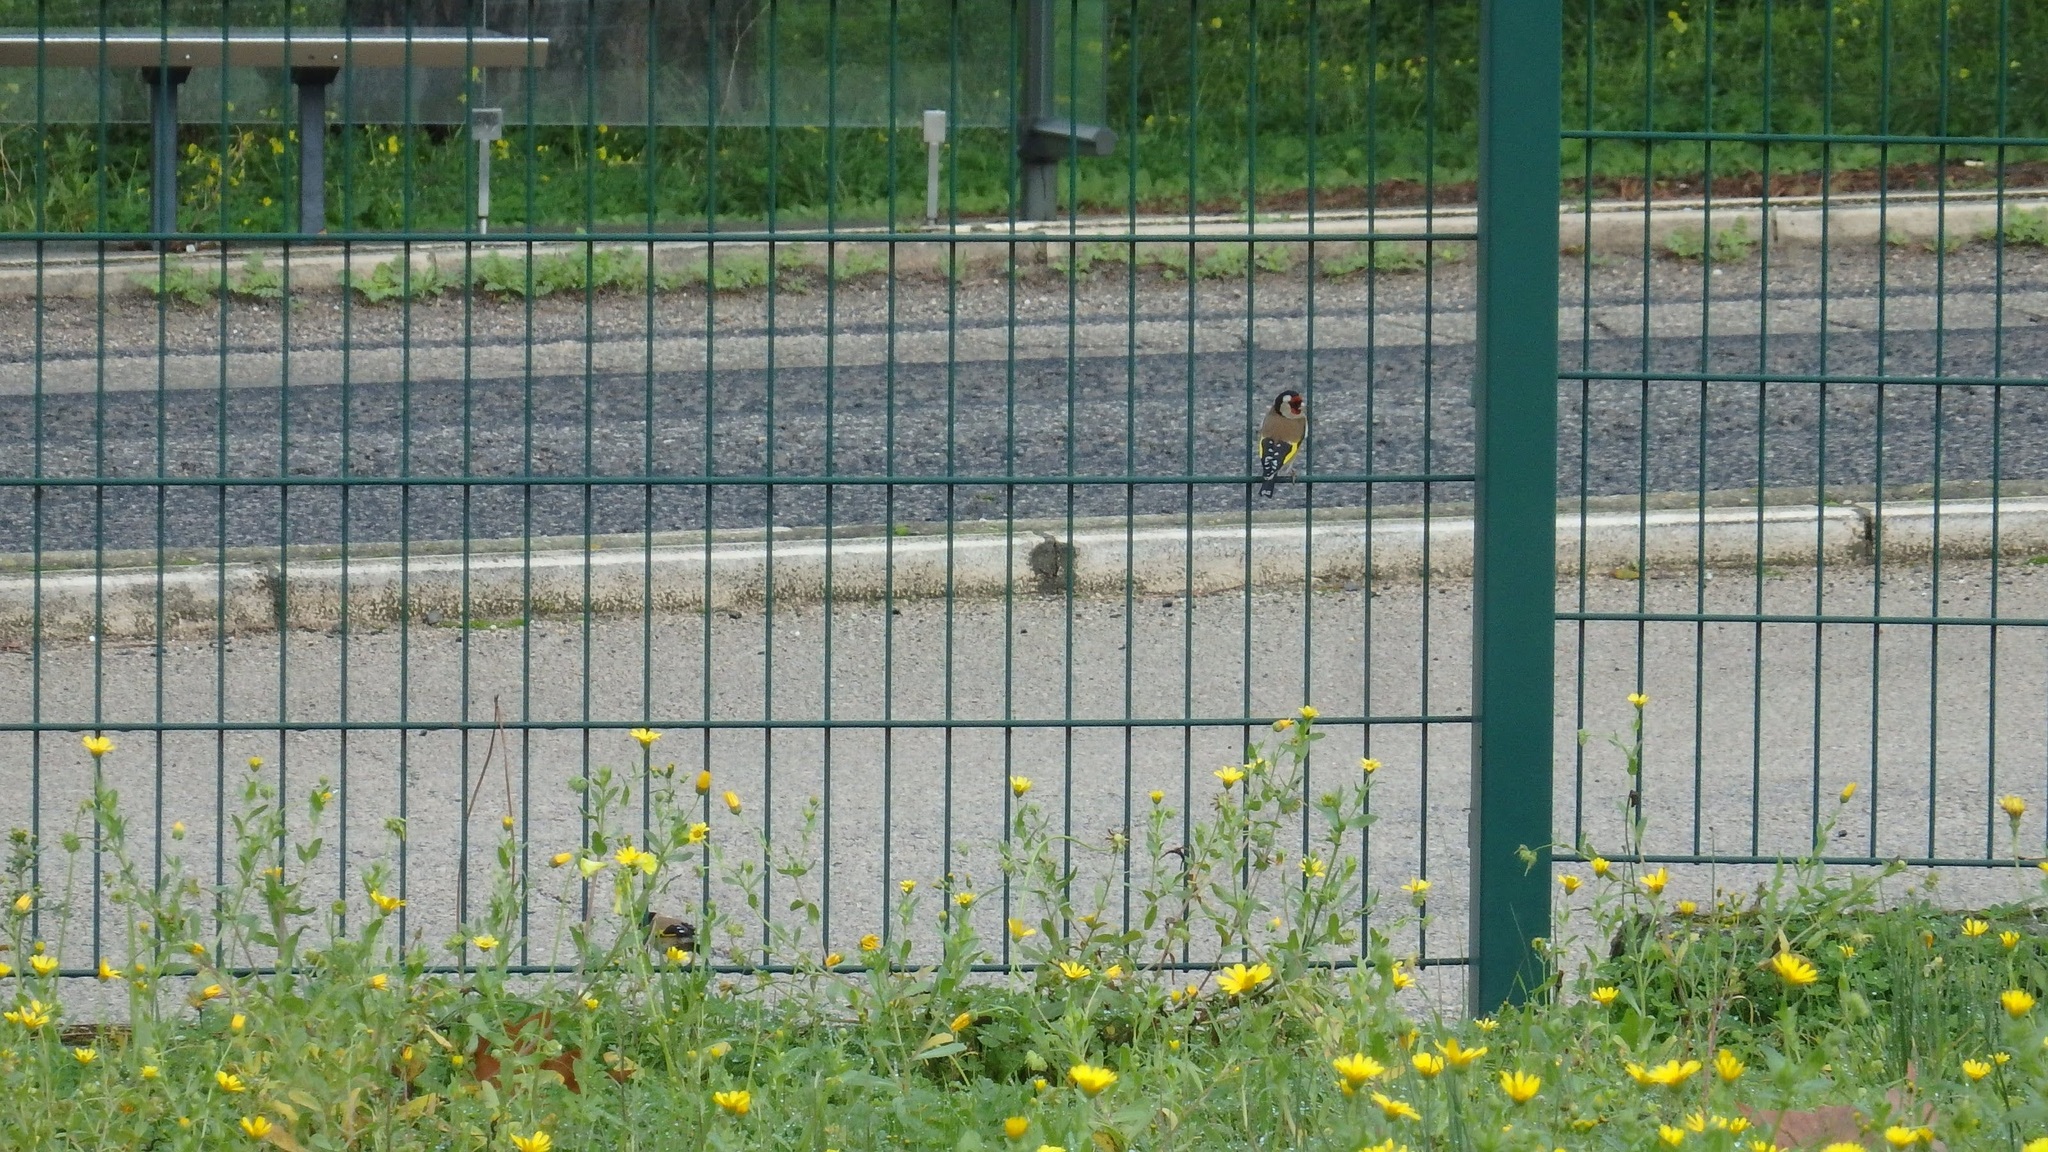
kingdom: Animalia
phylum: Chordata
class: Aves
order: Passeriformes
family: Fringillidae
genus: Carduelis
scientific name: Carduelis carduelis
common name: European goldfinch
